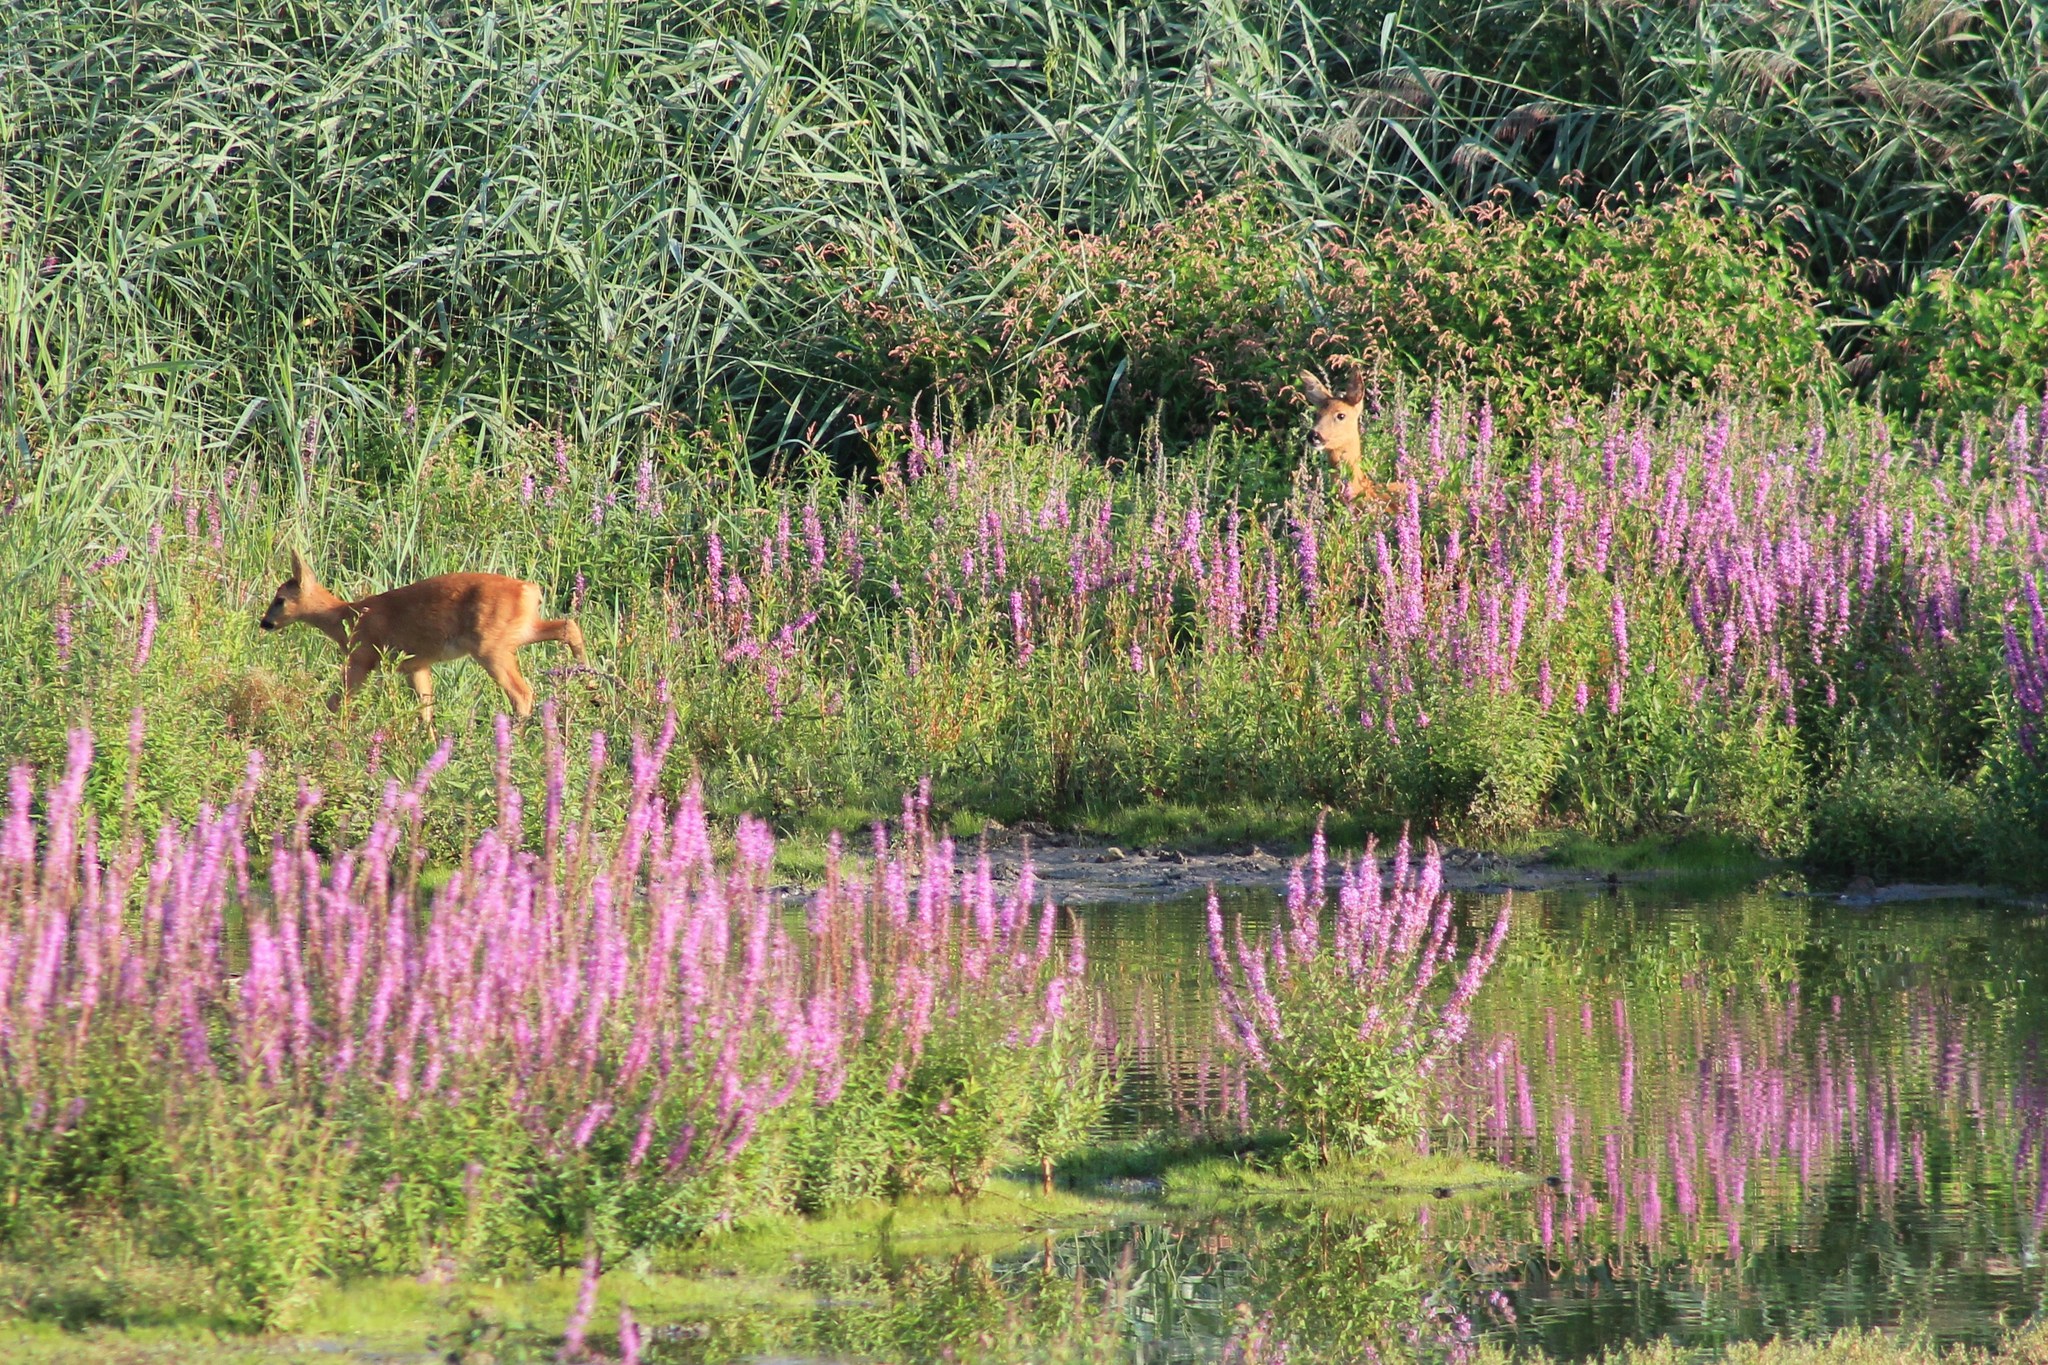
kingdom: Animalia
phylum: Chordata
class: Mammalia
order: Artiodactyla
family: Cervidae
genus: Capreolus
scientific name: Capreolus capreolus
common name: Western roe deer
